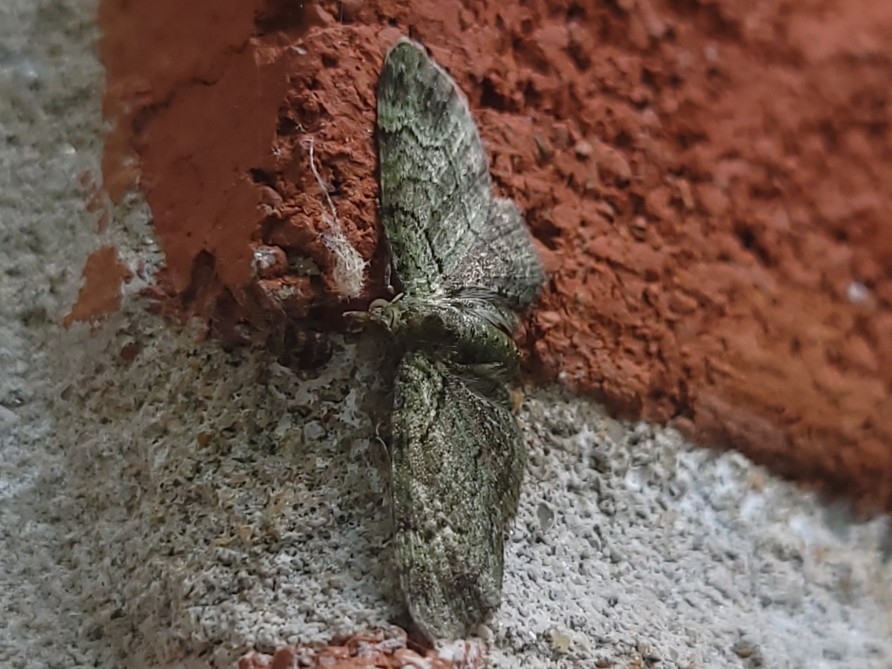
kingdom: Animalia
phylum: Arthropoda
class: Insecta
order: Lepidoptera
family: Geometridae
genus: Pasiphila
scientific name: Pasiphila rectangulata
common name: Green pug
